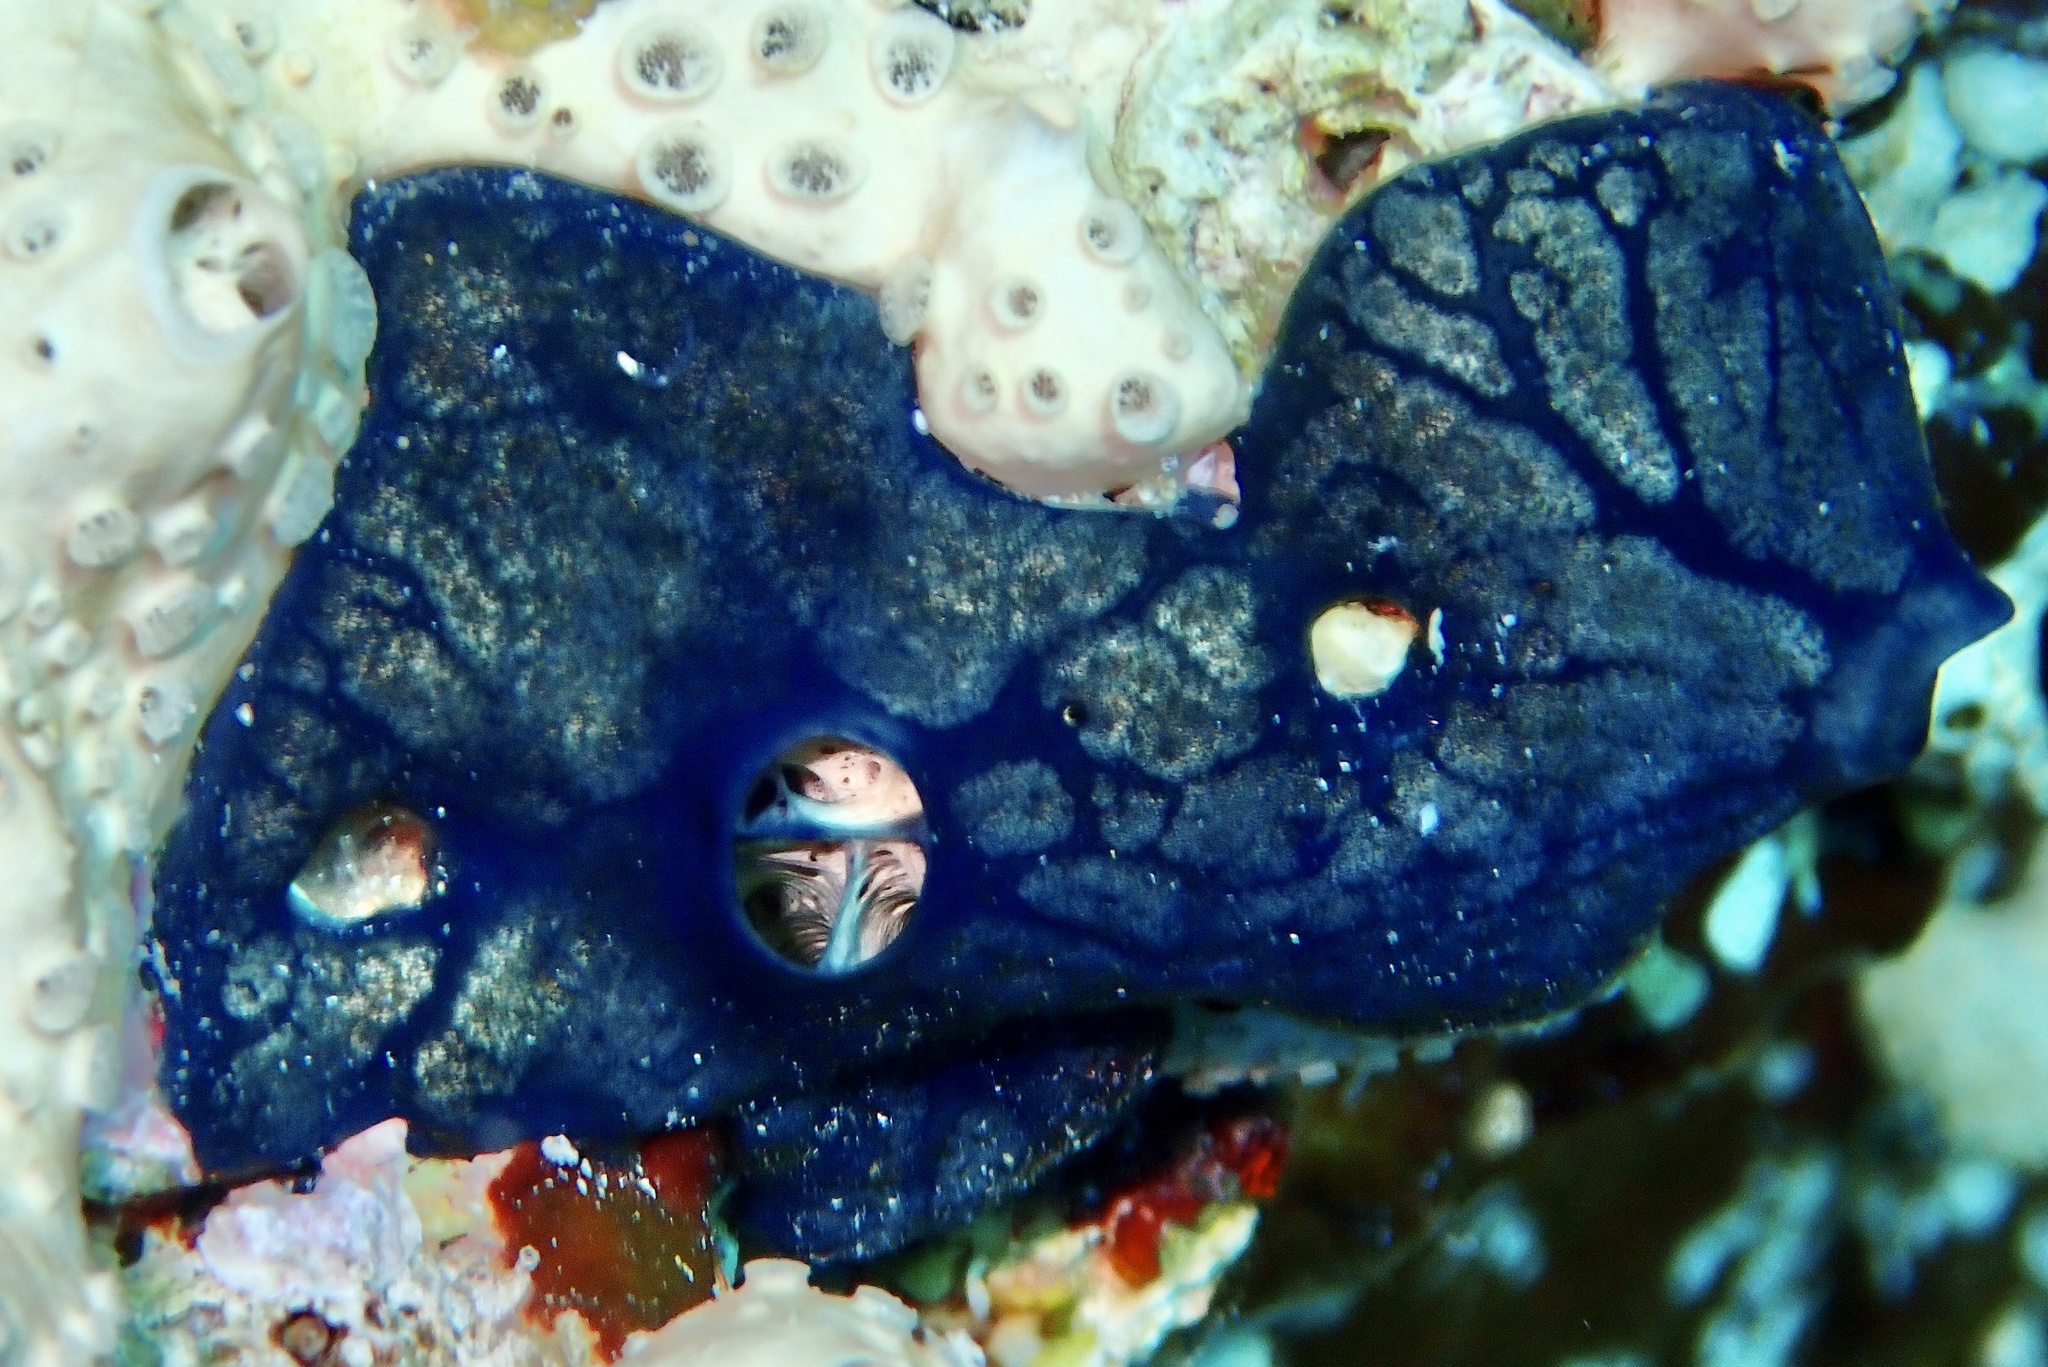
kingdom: Animalia
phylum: Porifera
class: Demospongiae
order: Poecilosclerida
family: Hymedesmiidae
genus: Hemimycale
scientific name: Hemimycale arabica
